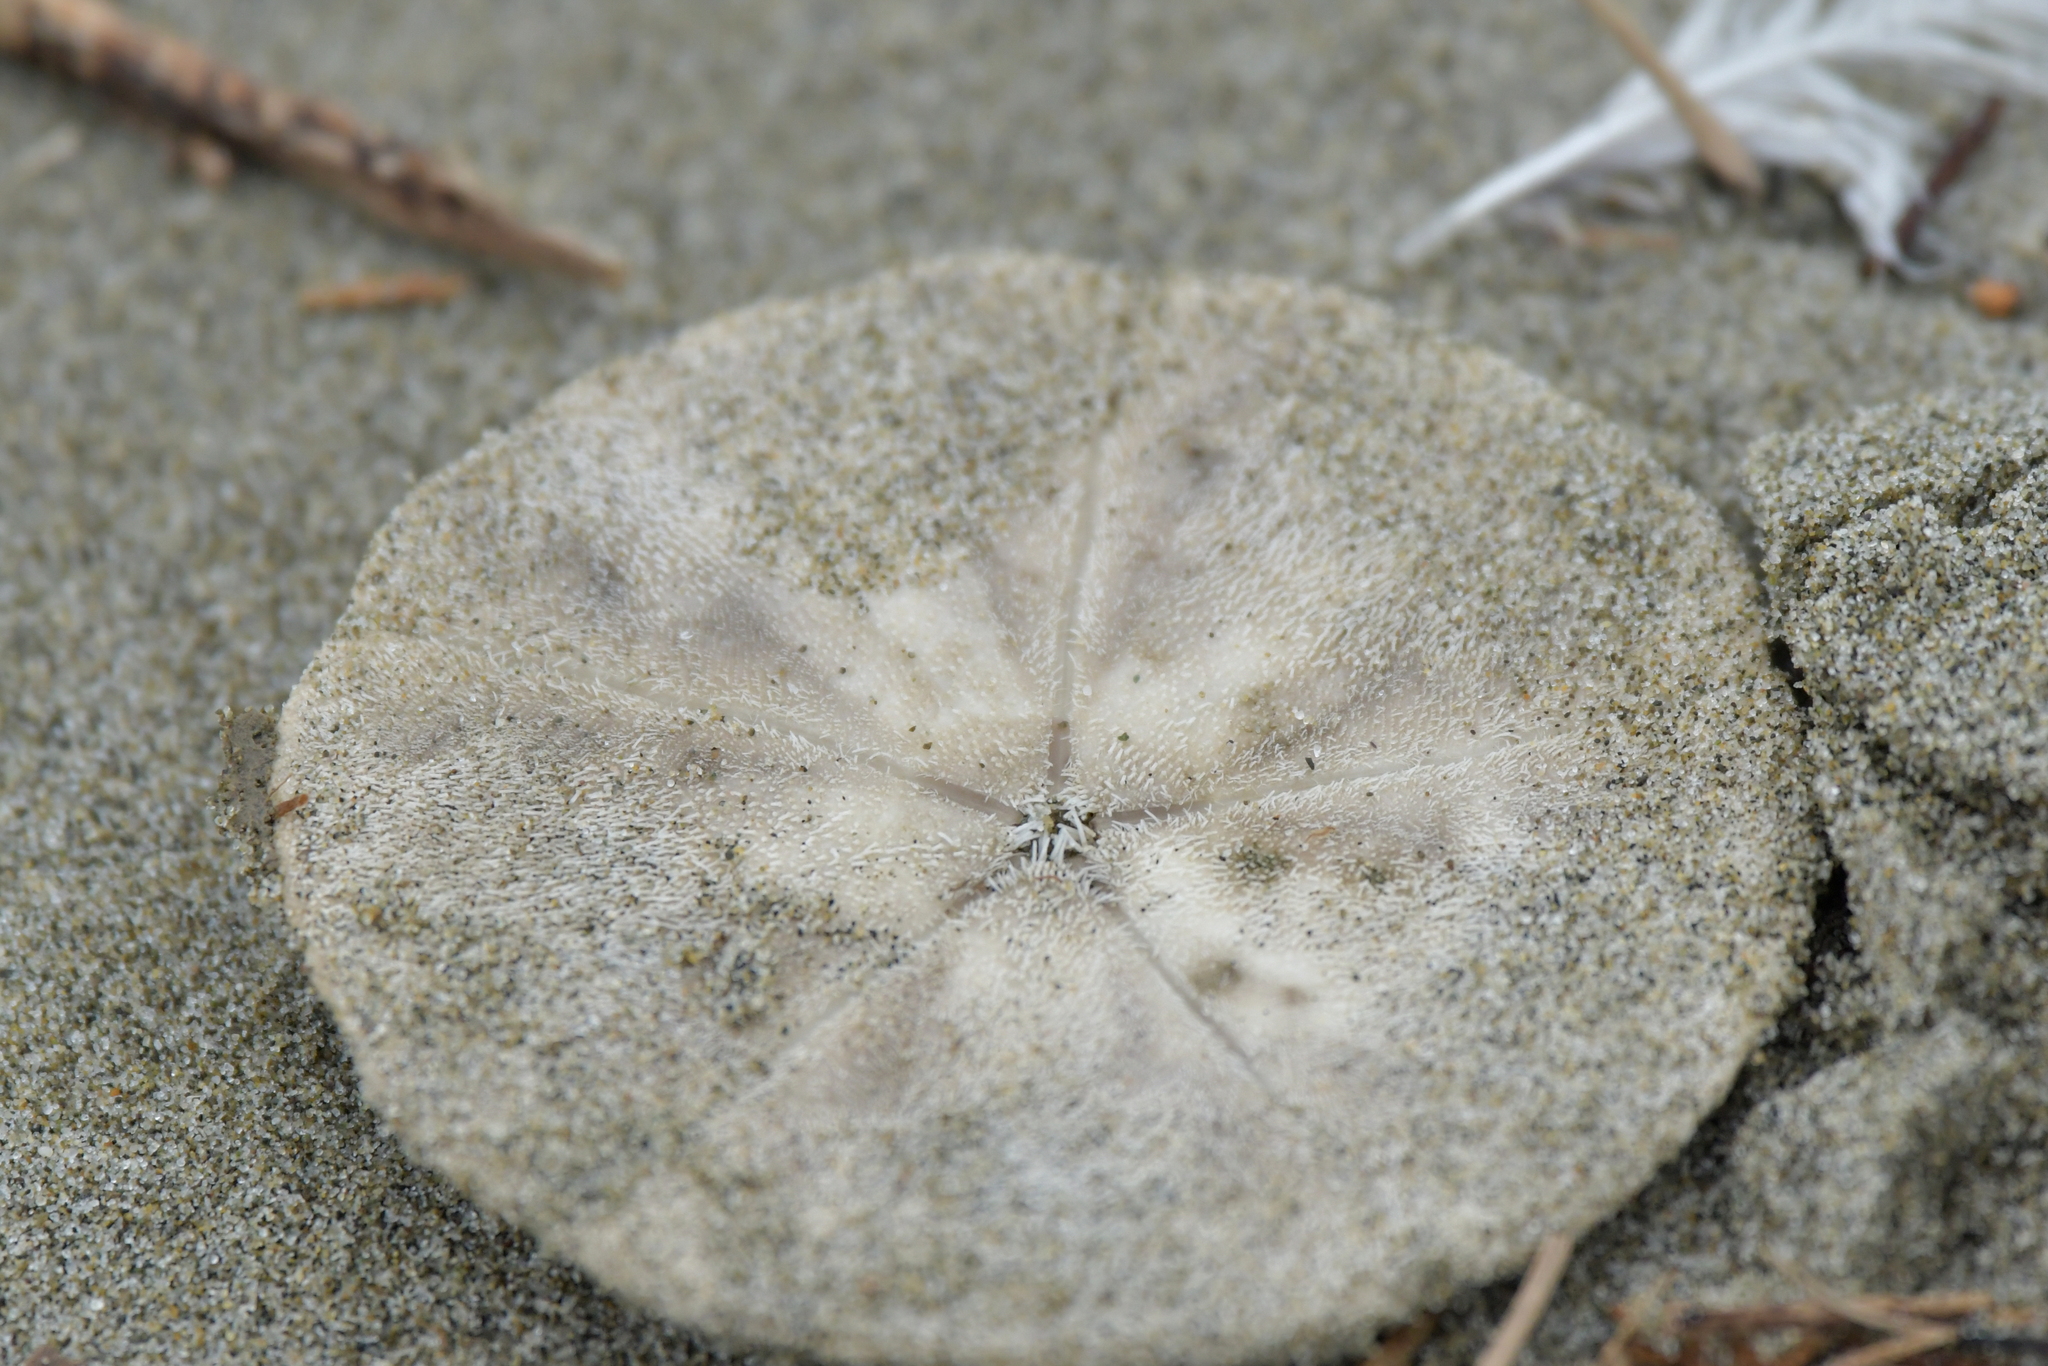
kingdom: Animalia
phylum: Echinodermata
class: Echinoidea
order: Clypeasteroida
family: Clypeasteridae
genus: Fellaster
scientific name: Fellaster zelandiae
